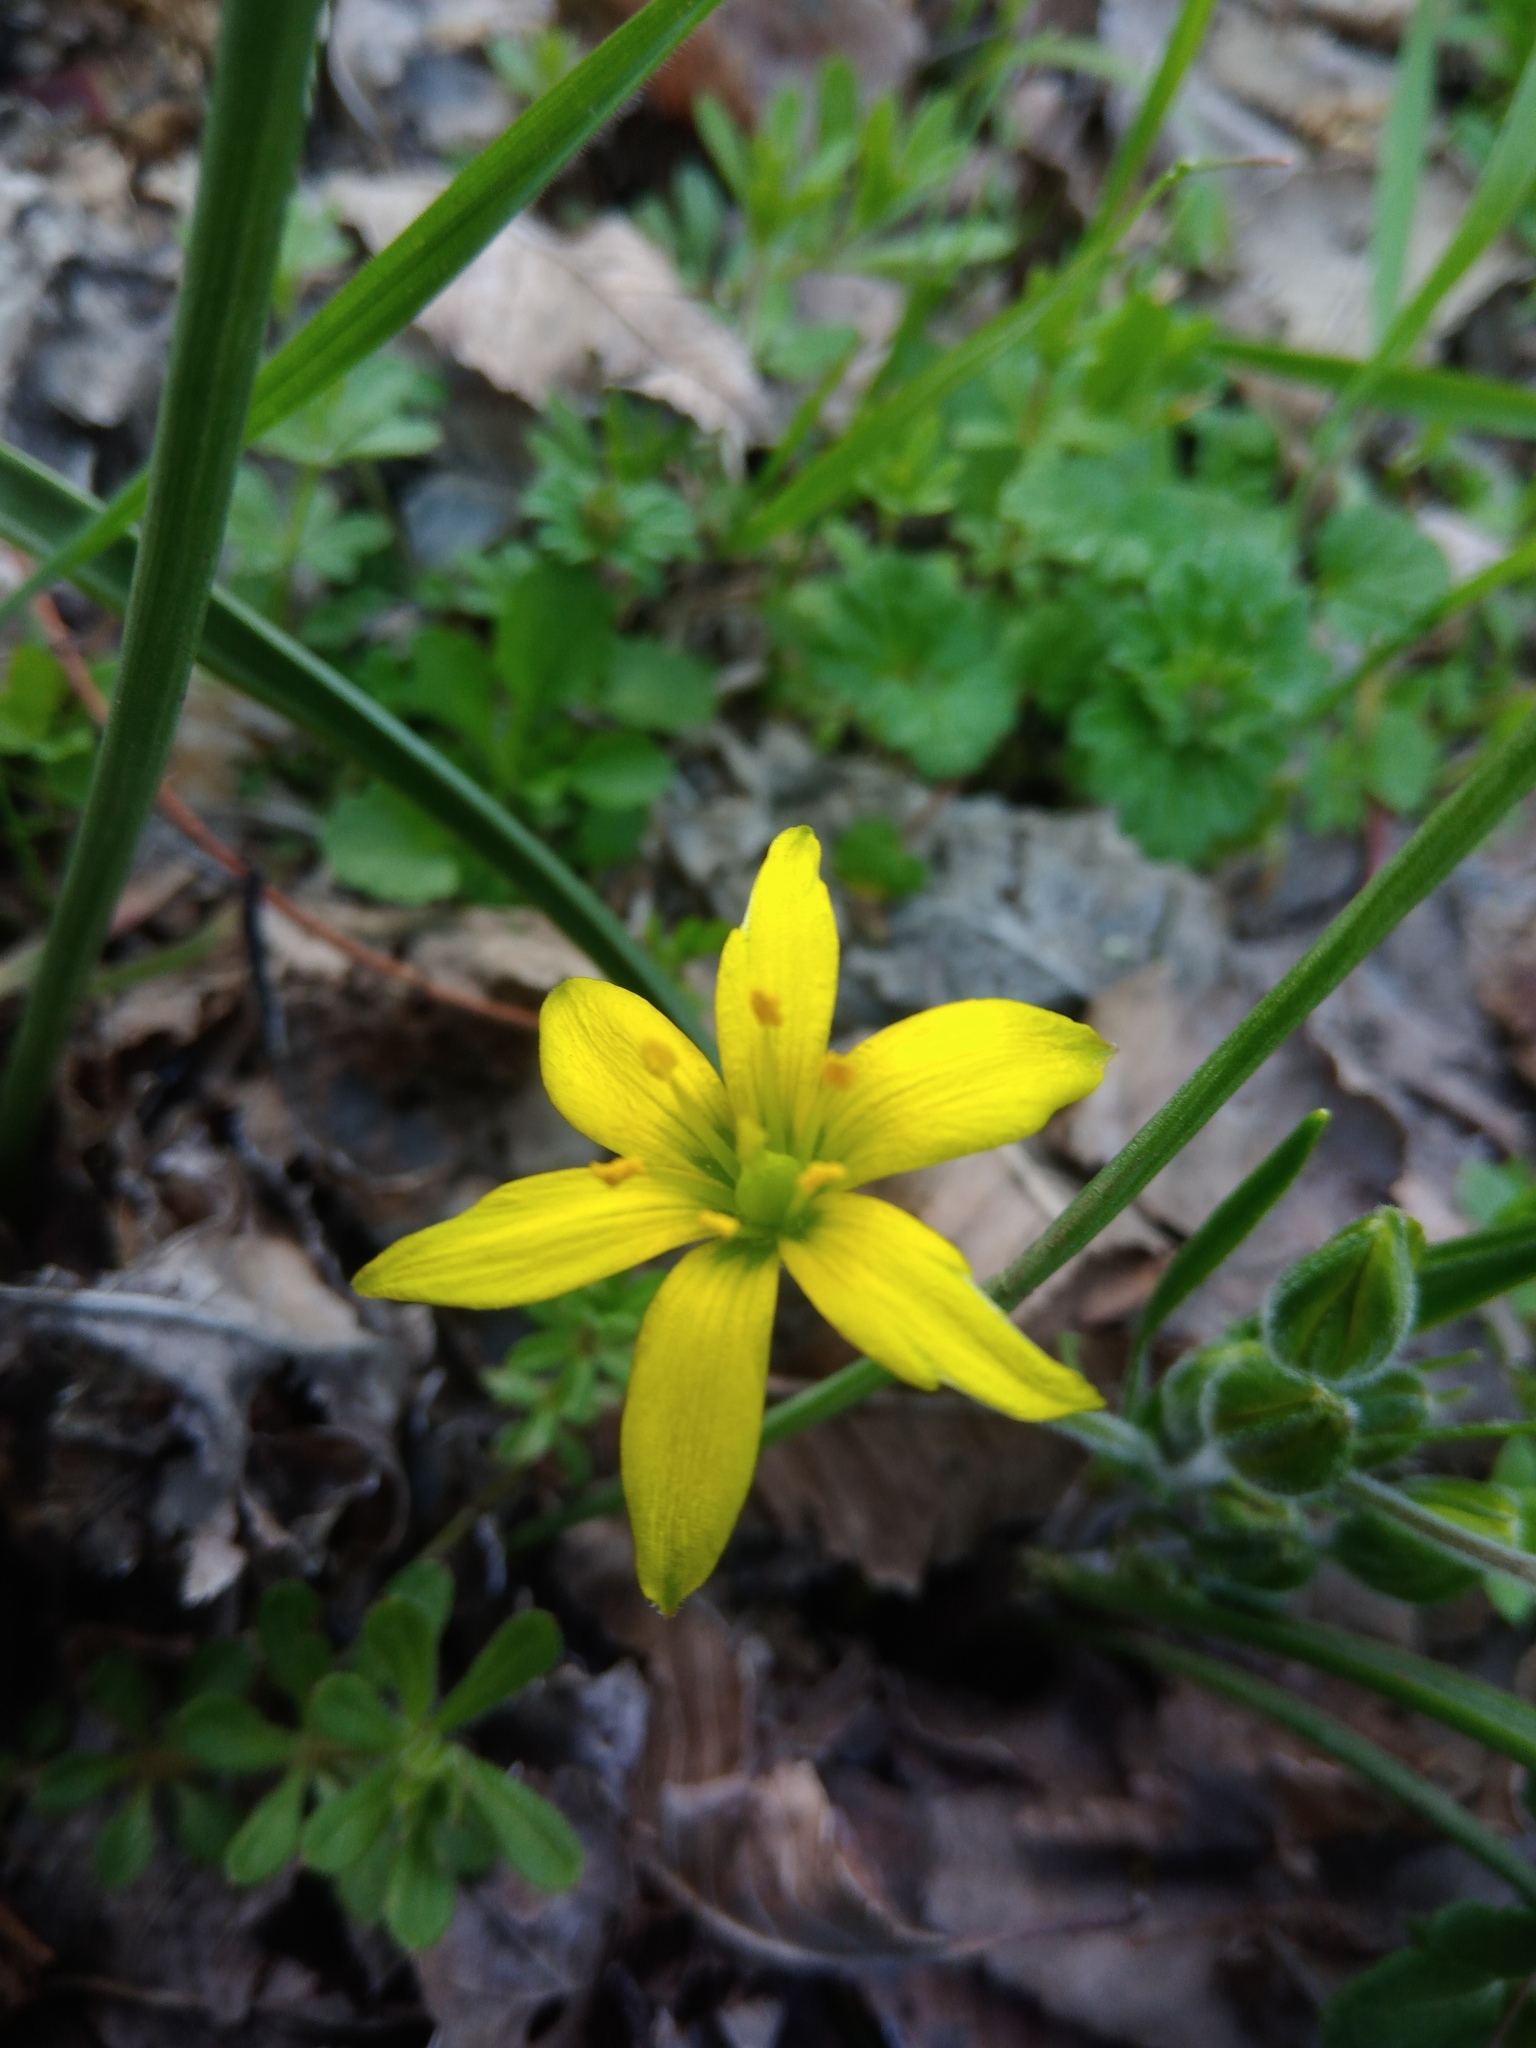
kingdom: Plantae
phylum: Tracheophyta
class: Liliopsida
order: Liliales
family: Liliaceae
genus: Gagea
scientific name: Gagea villosa
